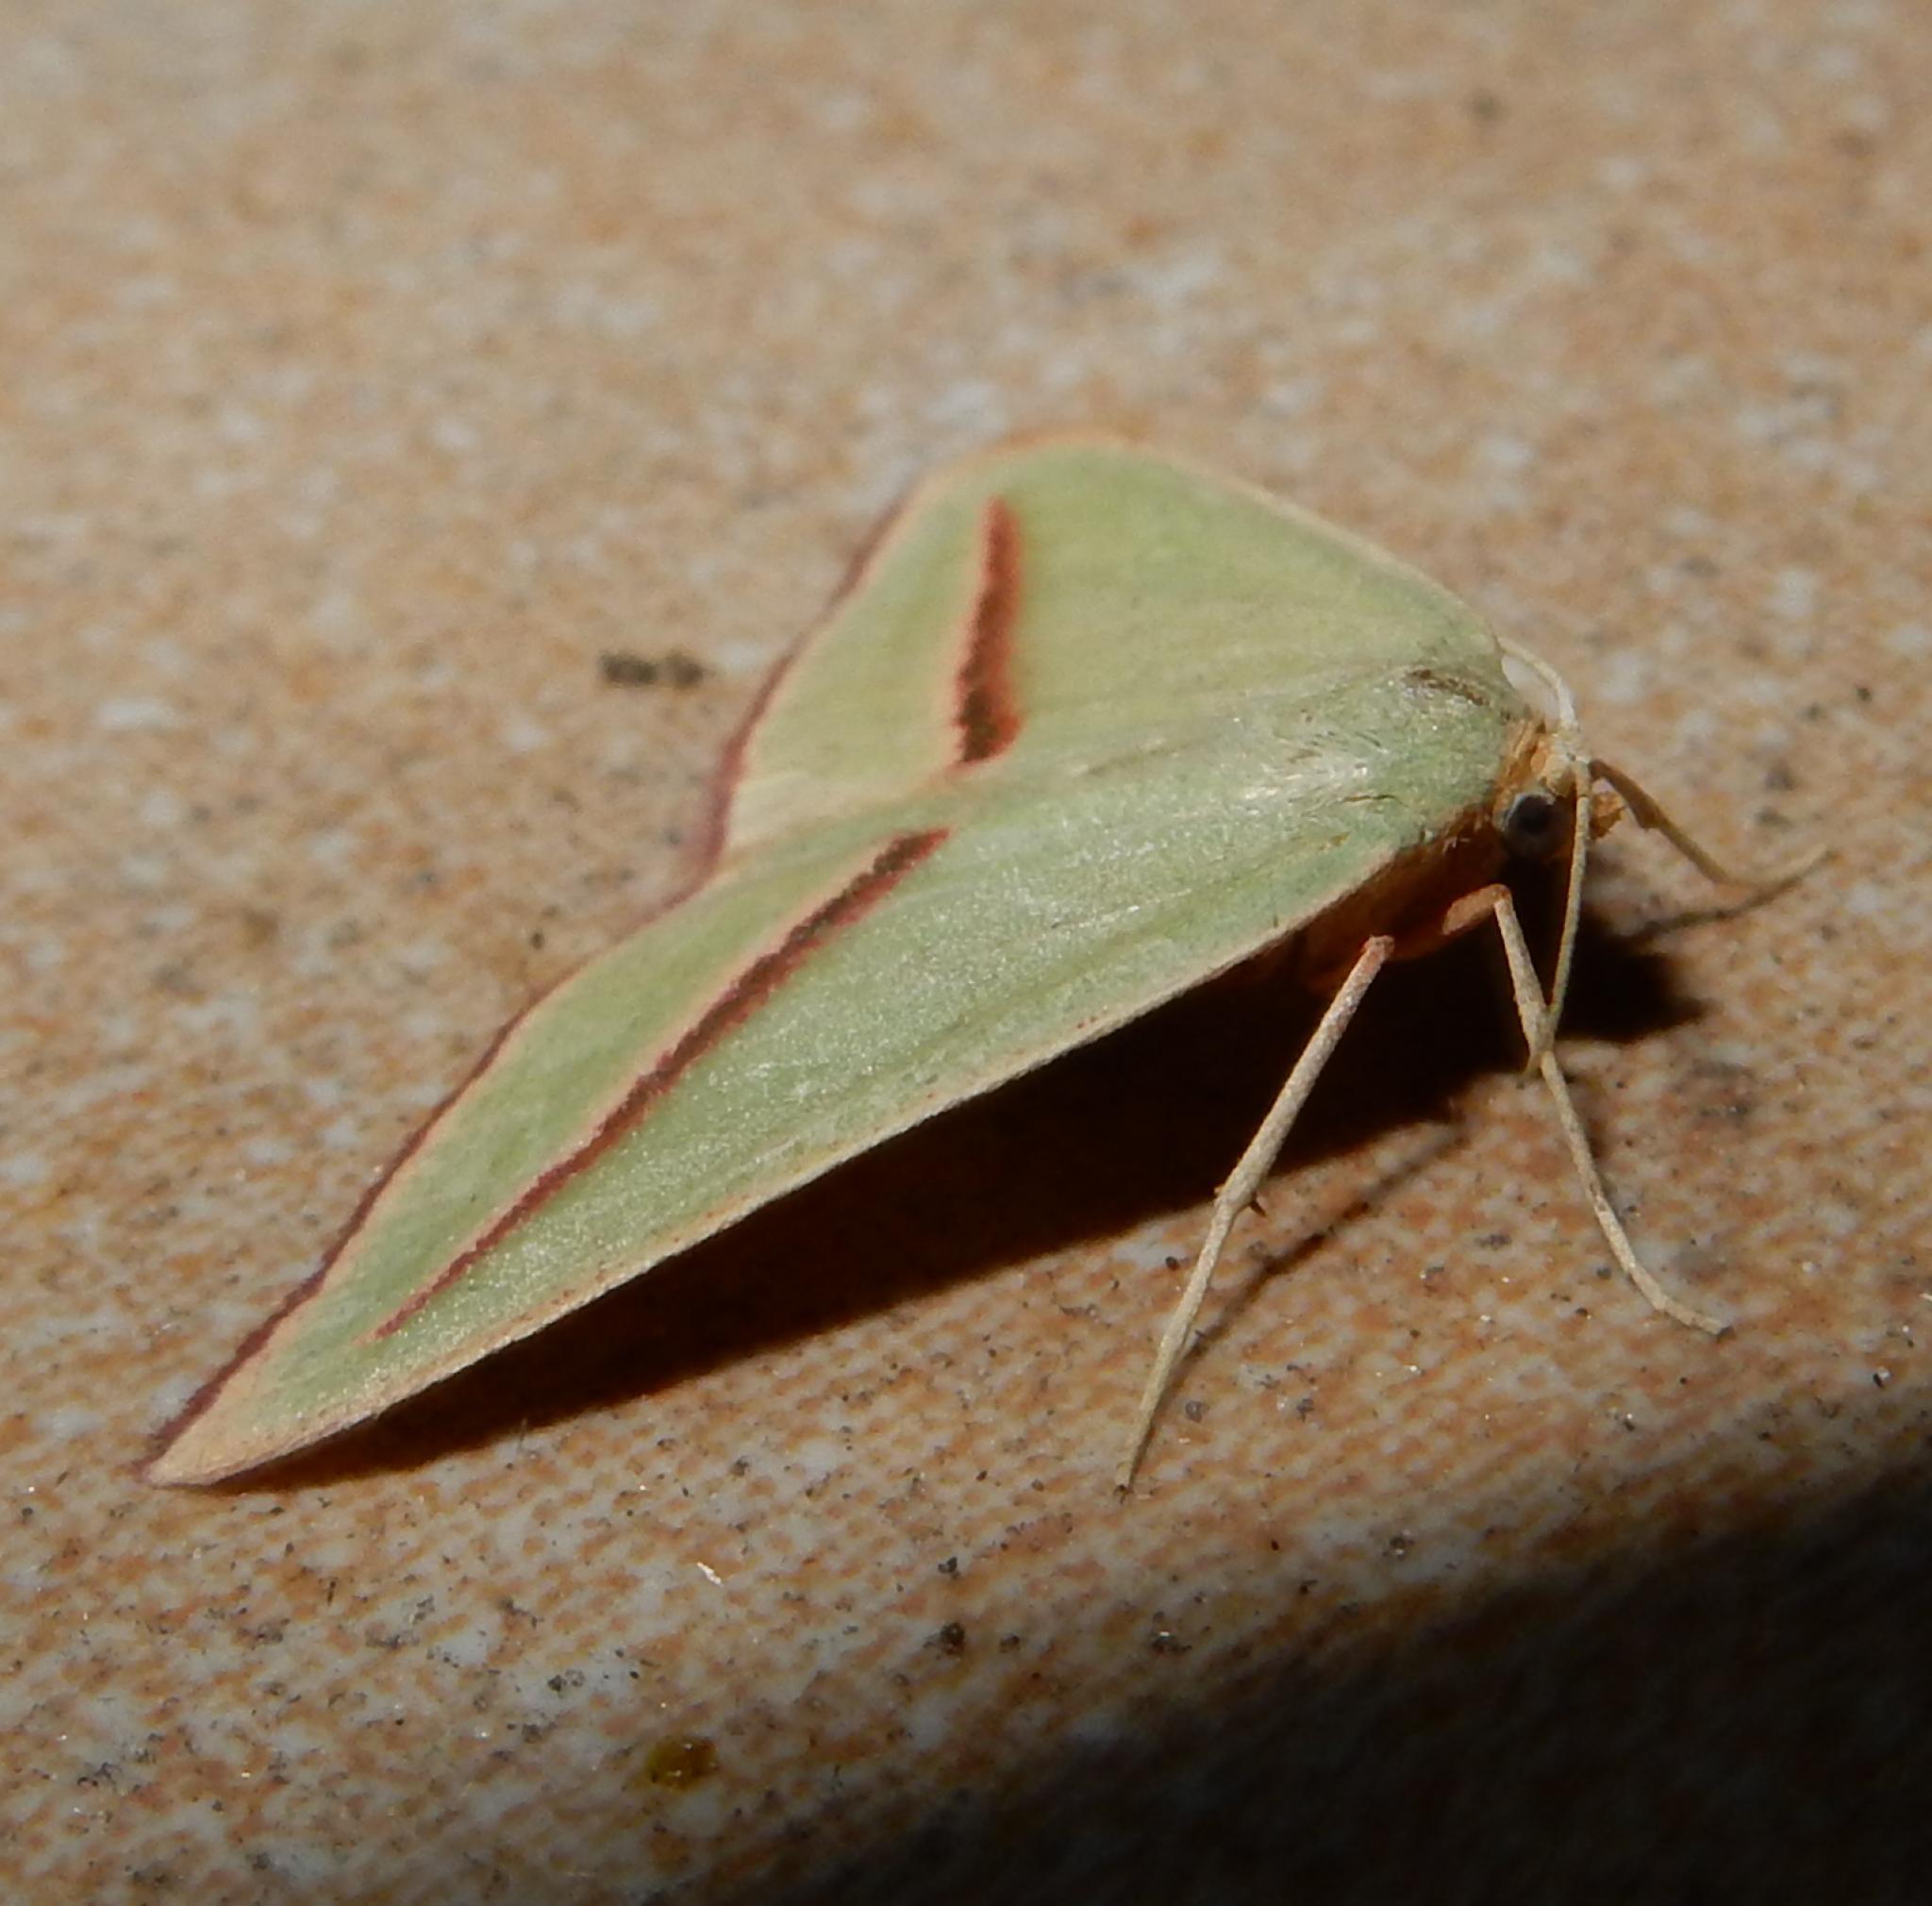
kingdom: Animalia
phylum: Arthropoda
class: Insecta
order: Lepidoptera
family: Geometridae
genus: Chlorerythra
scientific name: Chlorerythra rubriplaga
